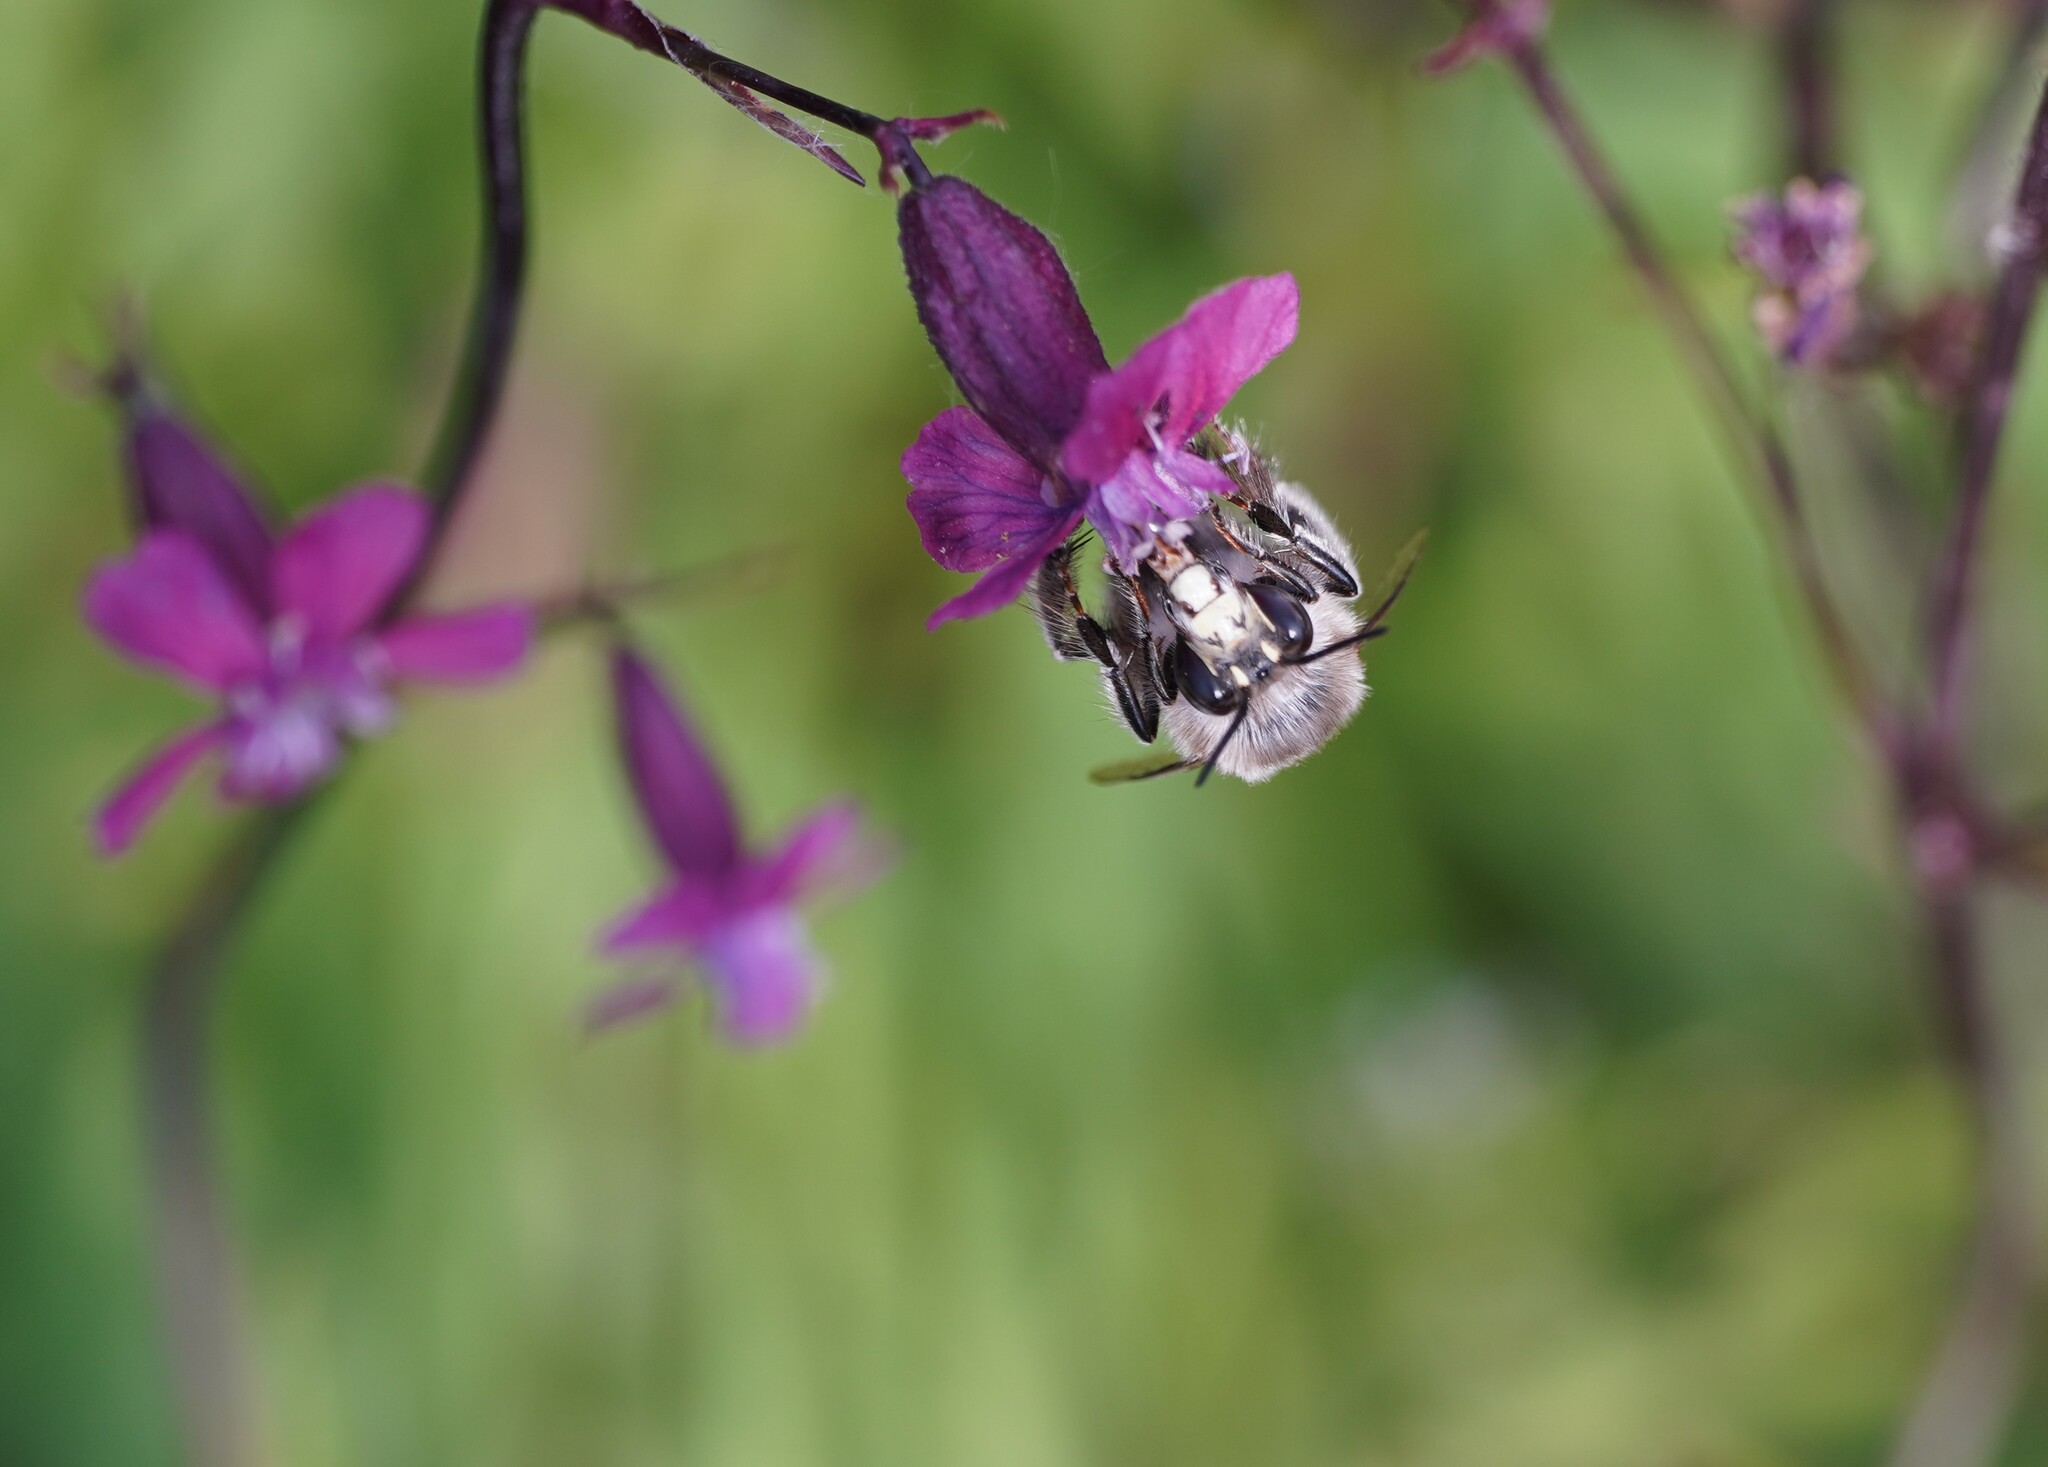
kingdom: Animalia
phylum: Arthropoda
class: Insecta
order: Hymenoptera
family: Apidae
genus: Anthophora
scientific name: Anthophora plumipes
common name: Hairy-footed flower bee
